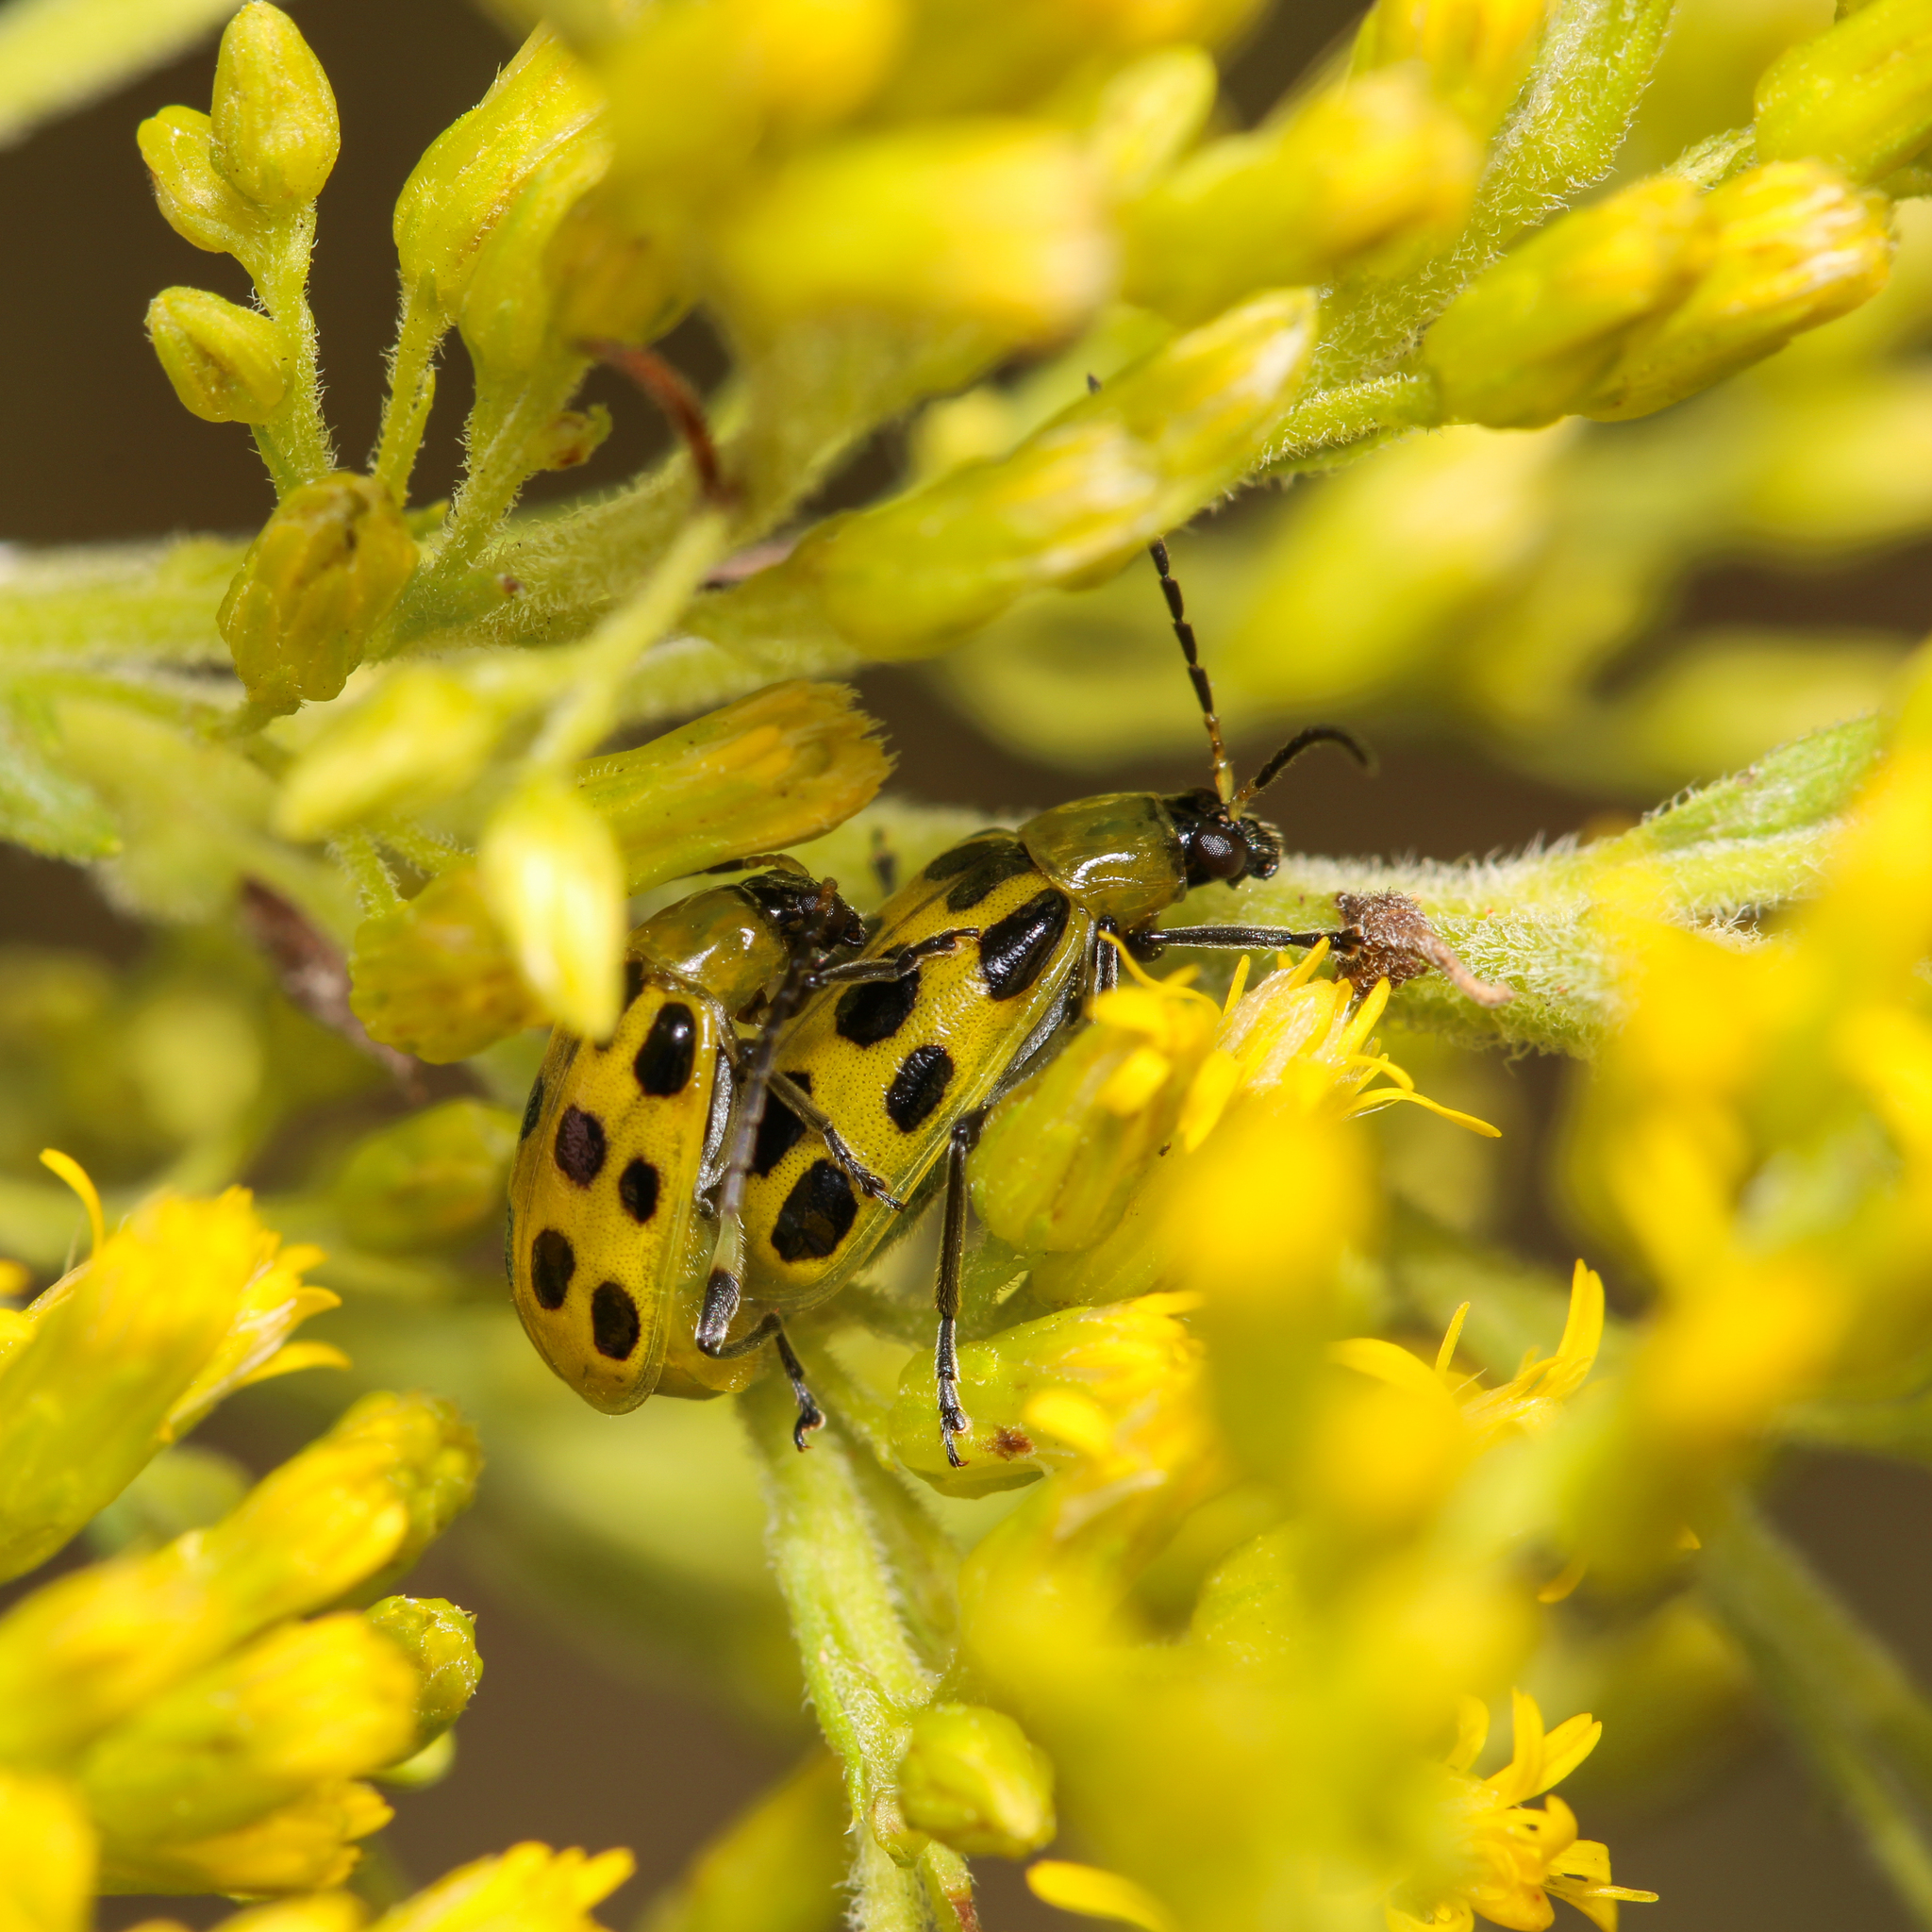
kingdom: Animalia
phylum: Arthropoda
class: Insecta
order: Coleoptera
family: Chrysomelidae
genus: Diabrotica
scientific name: Diabrotica undecimpunctata
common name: Spotted cucumber beetle
